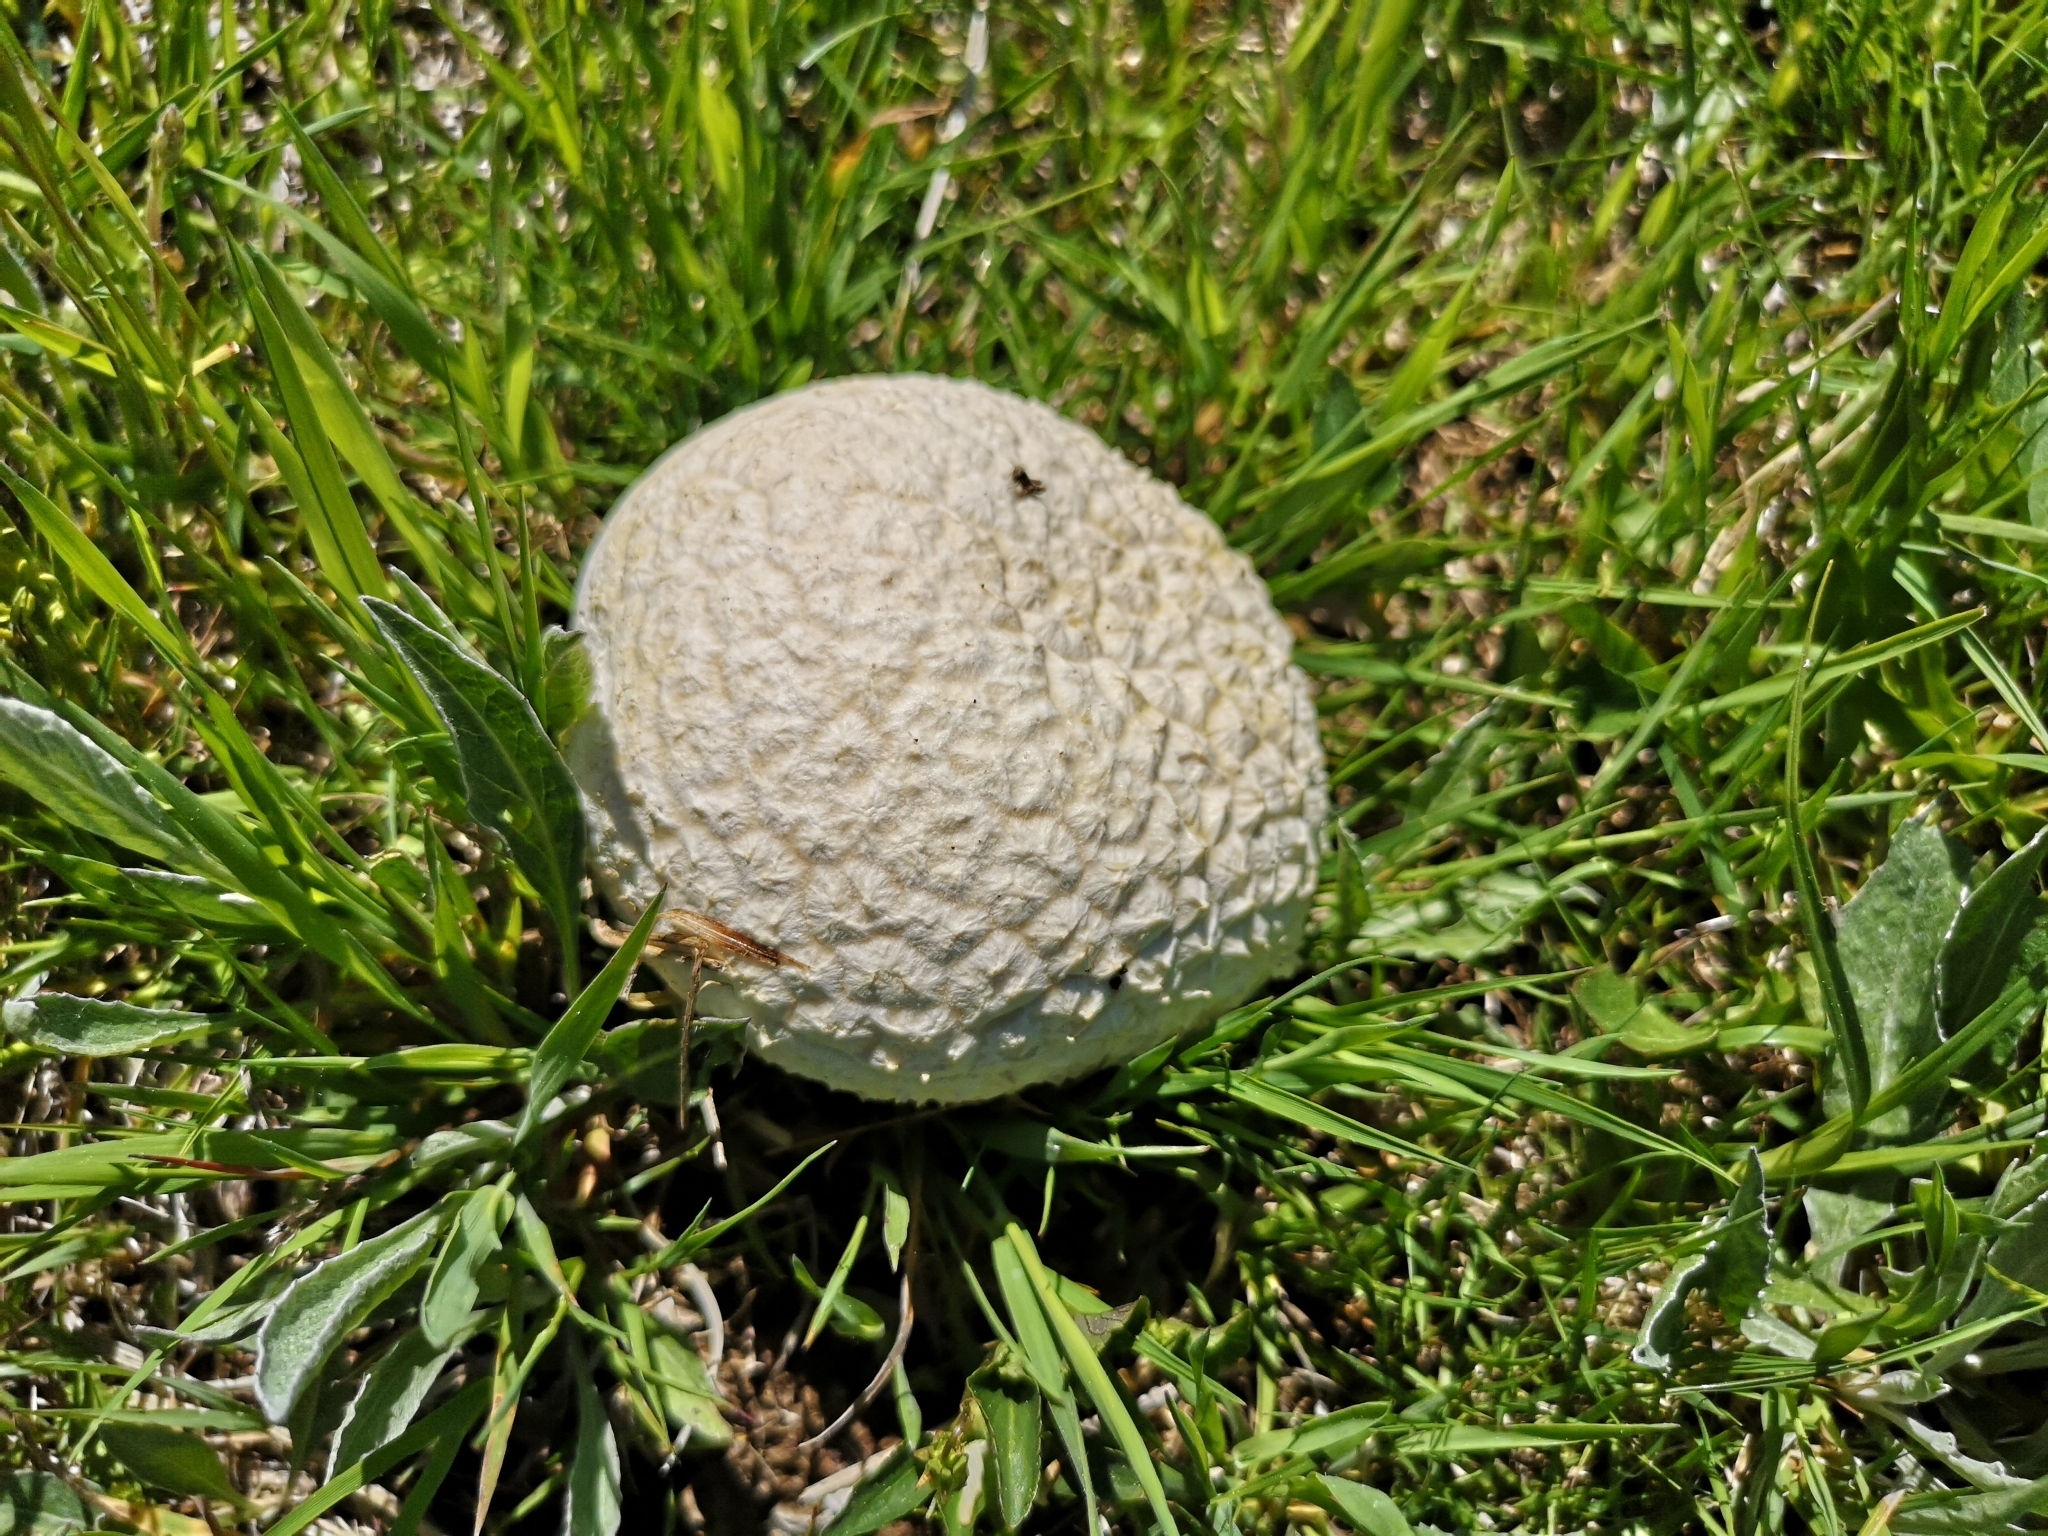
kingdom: Fungi
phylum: Basidiomycota
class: Agaricomycetes
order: Agaricales
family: Lycoperdaceae
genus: Bovistella
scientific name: Bovistella utriformis
